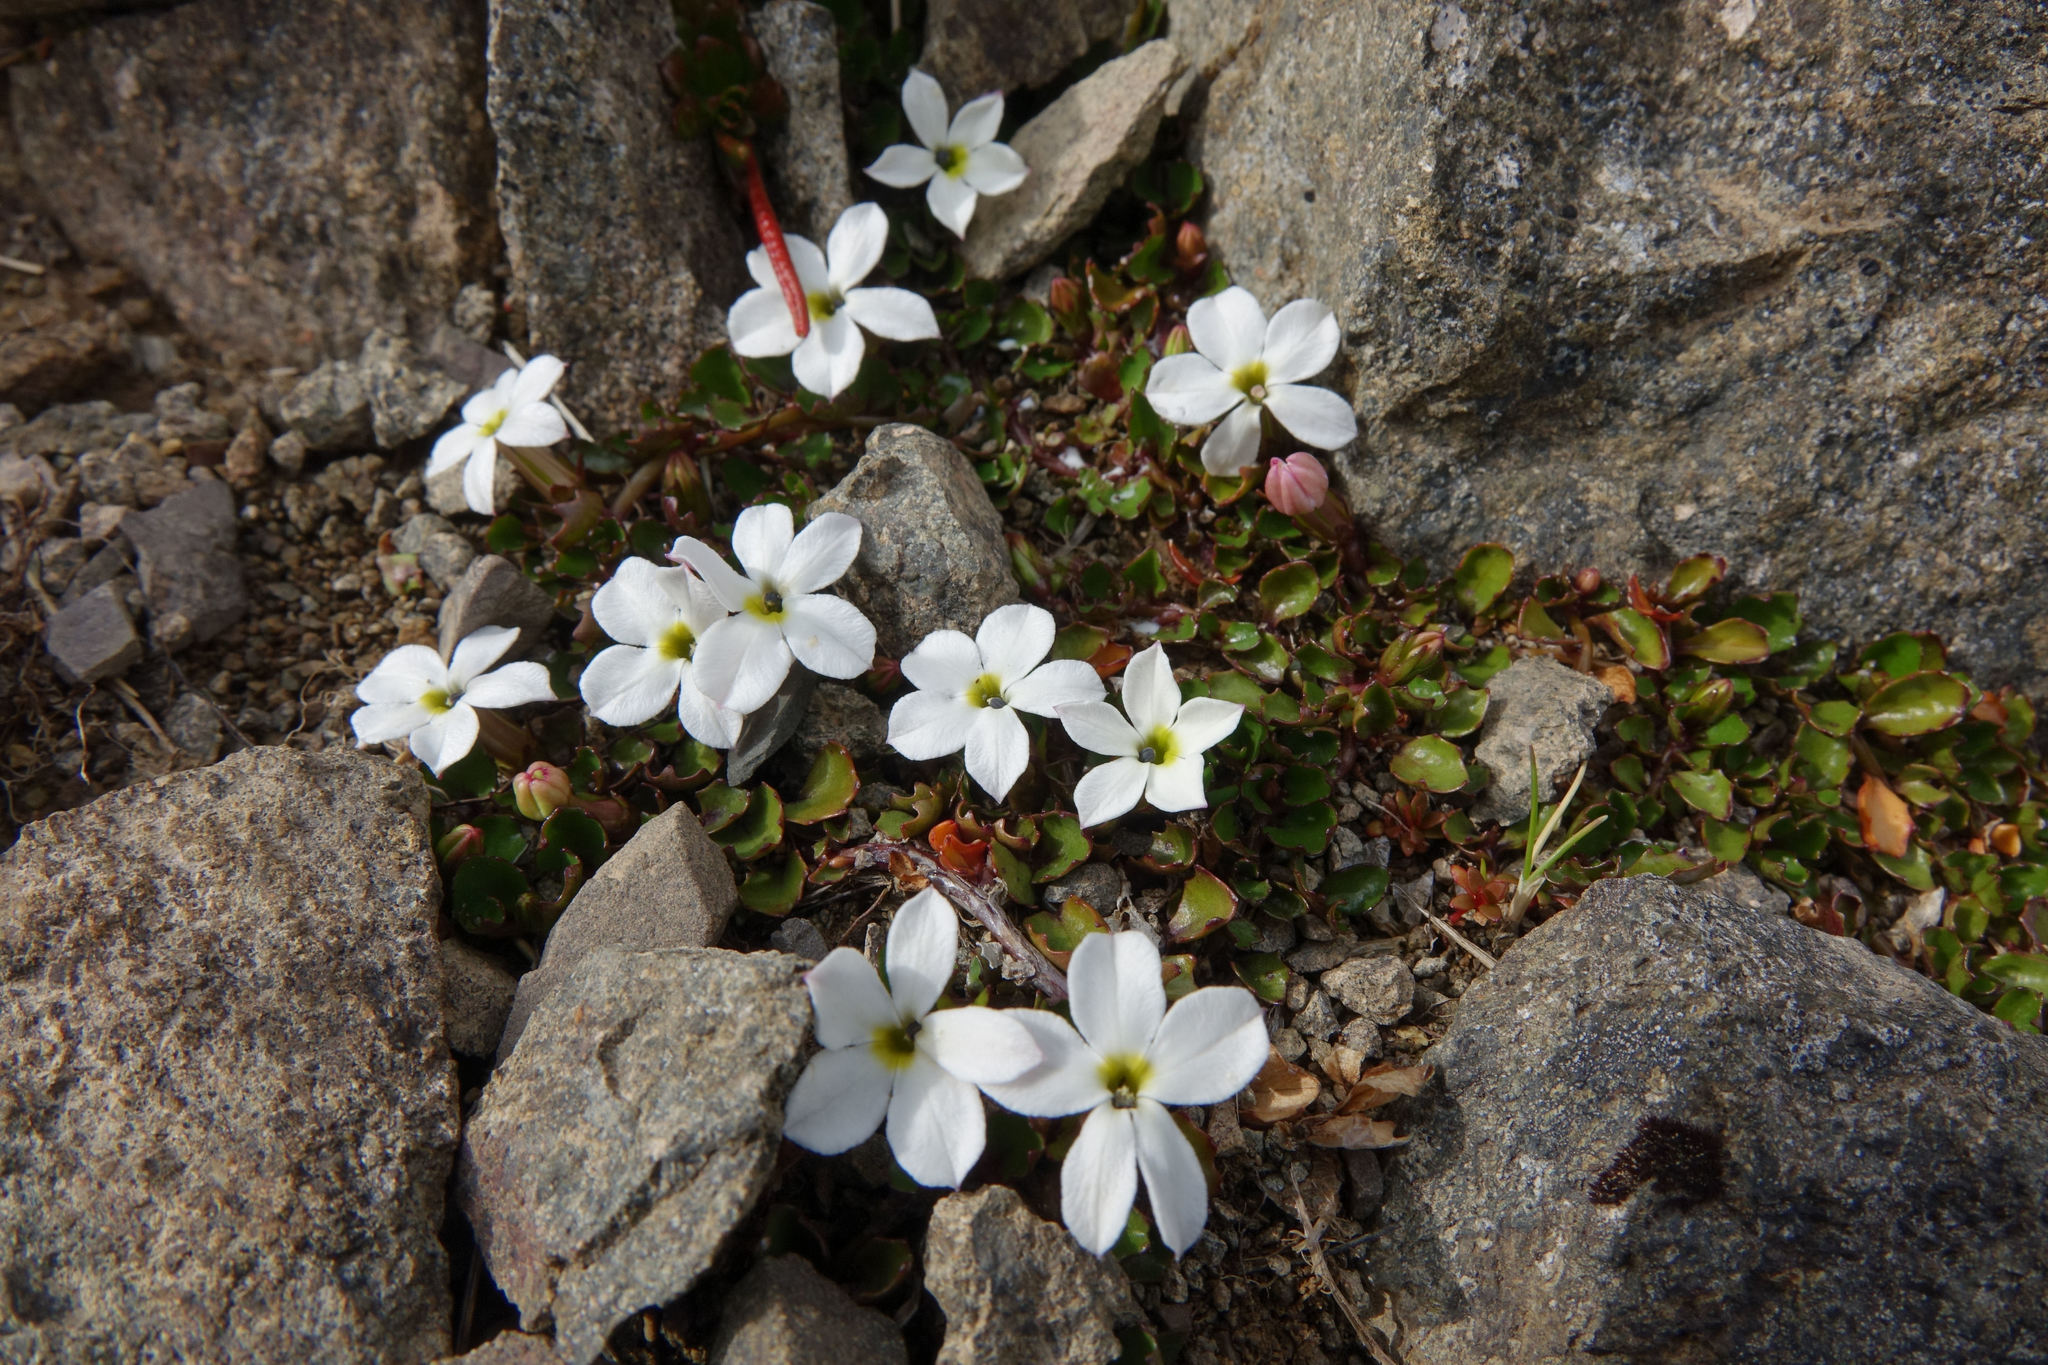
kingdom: Plantae
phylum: Tracheophyta
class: Magnoliopsida
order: Asterales
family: Campanulaceae
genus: Lobelia
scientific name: Lobelia glaberrima
